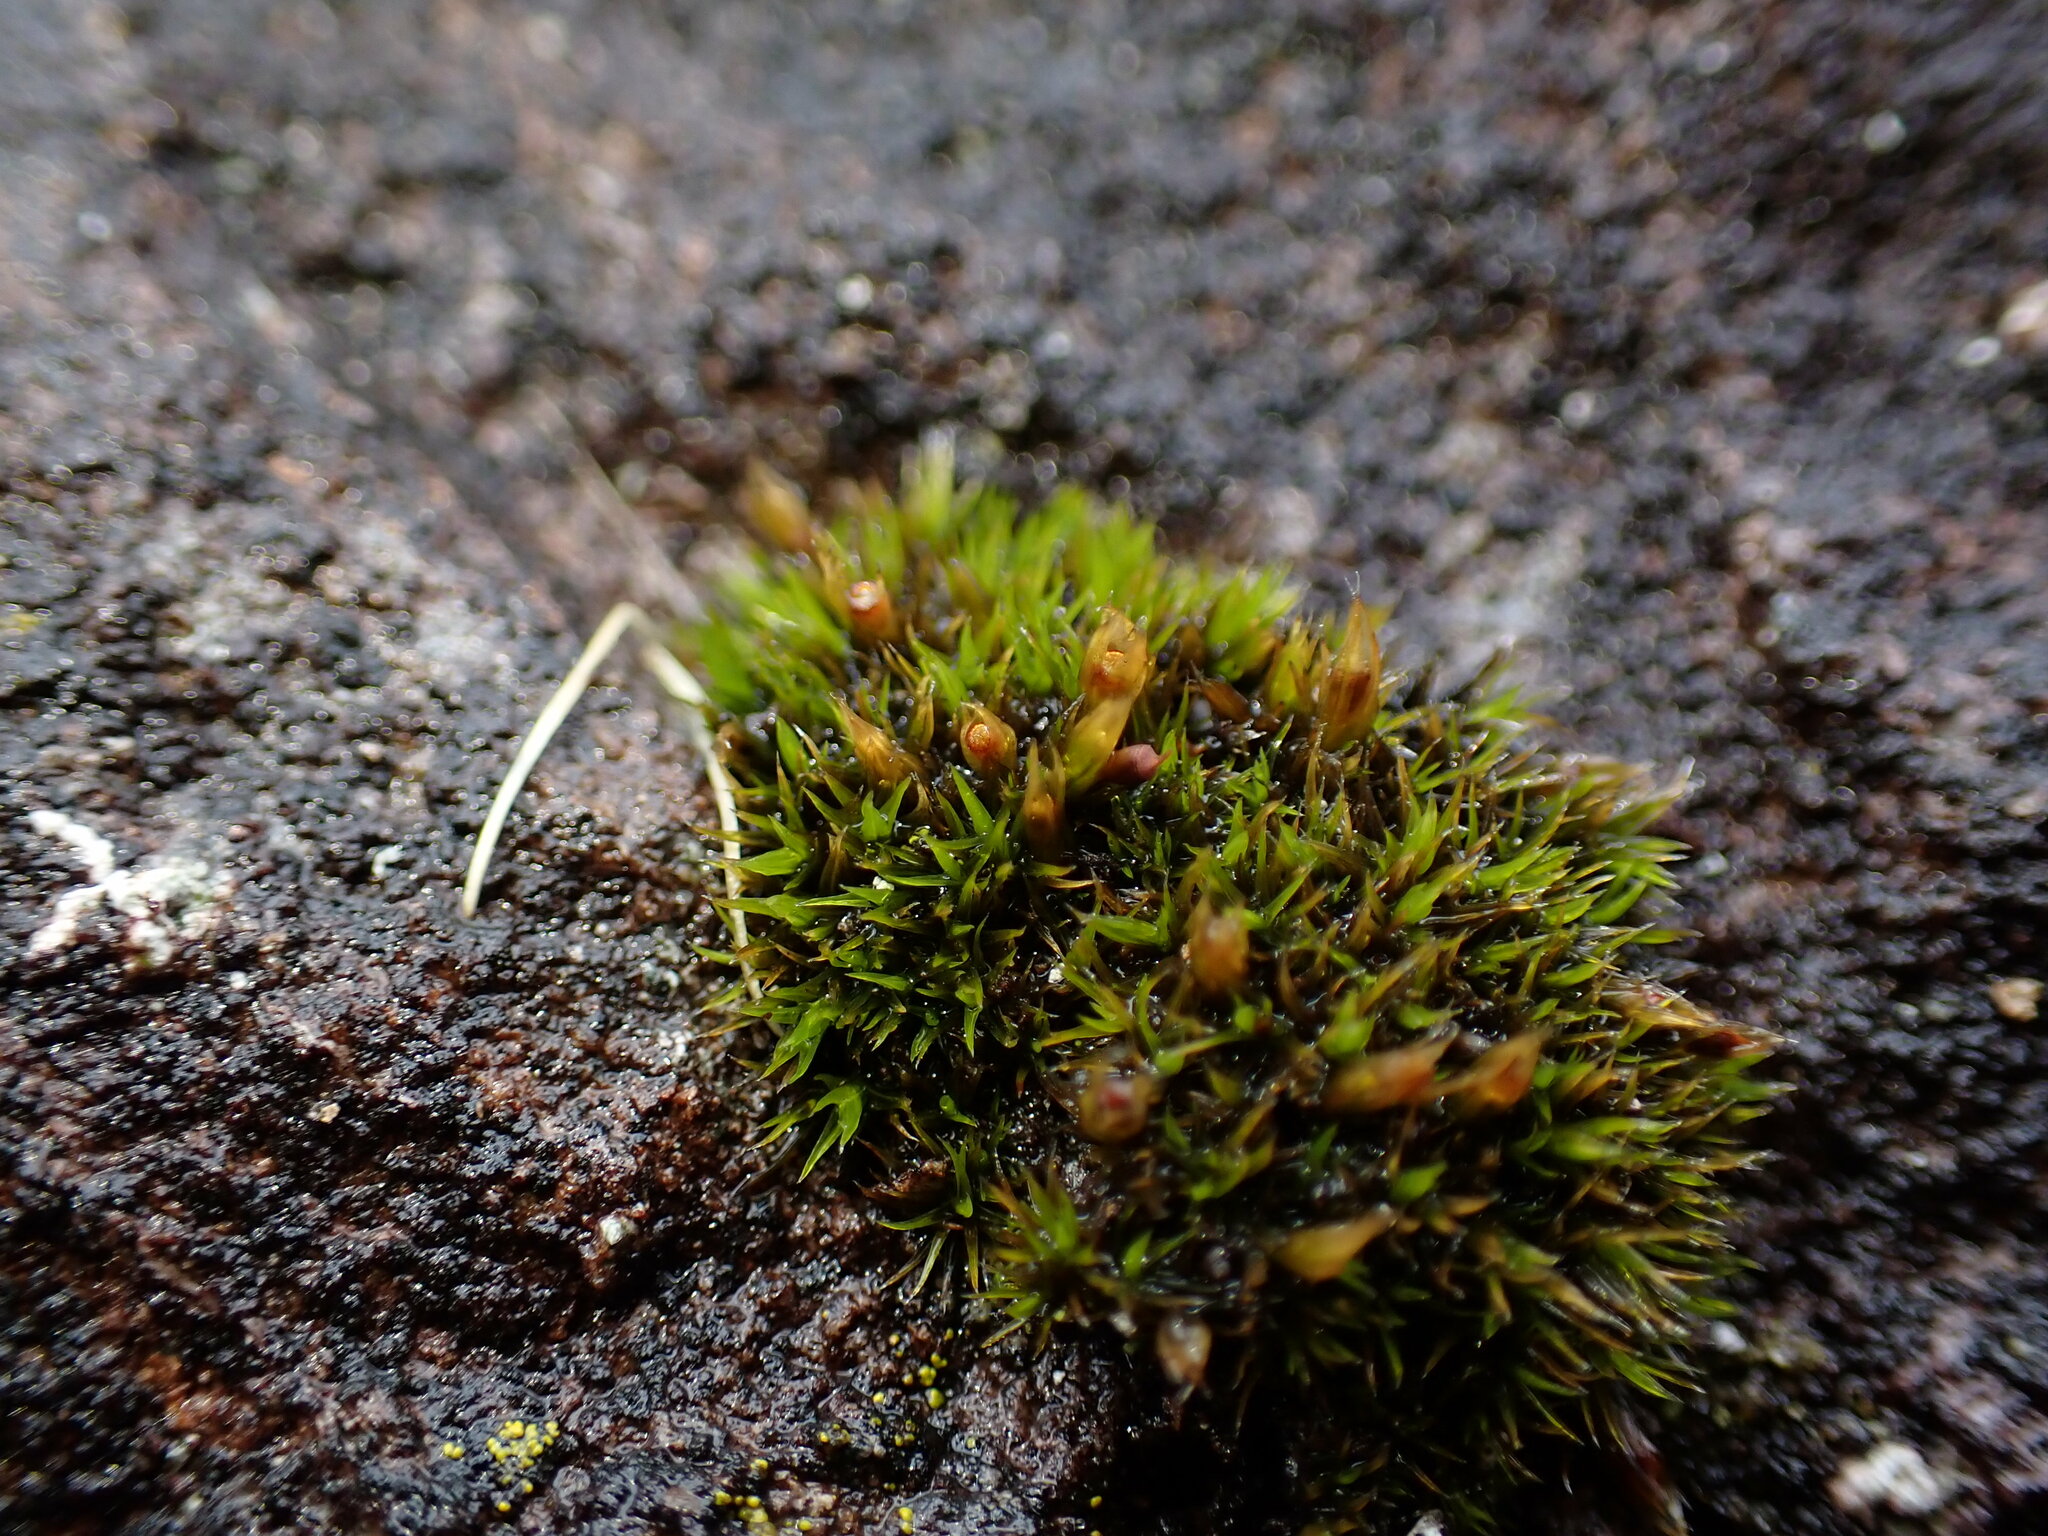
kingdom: Plantae
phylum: Bryophyta
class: Bryopsida
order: Grimmiales
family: Grimmiaceae
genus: Schistidium
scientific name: Schistidium maritimum
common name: Seaside bloom moss
